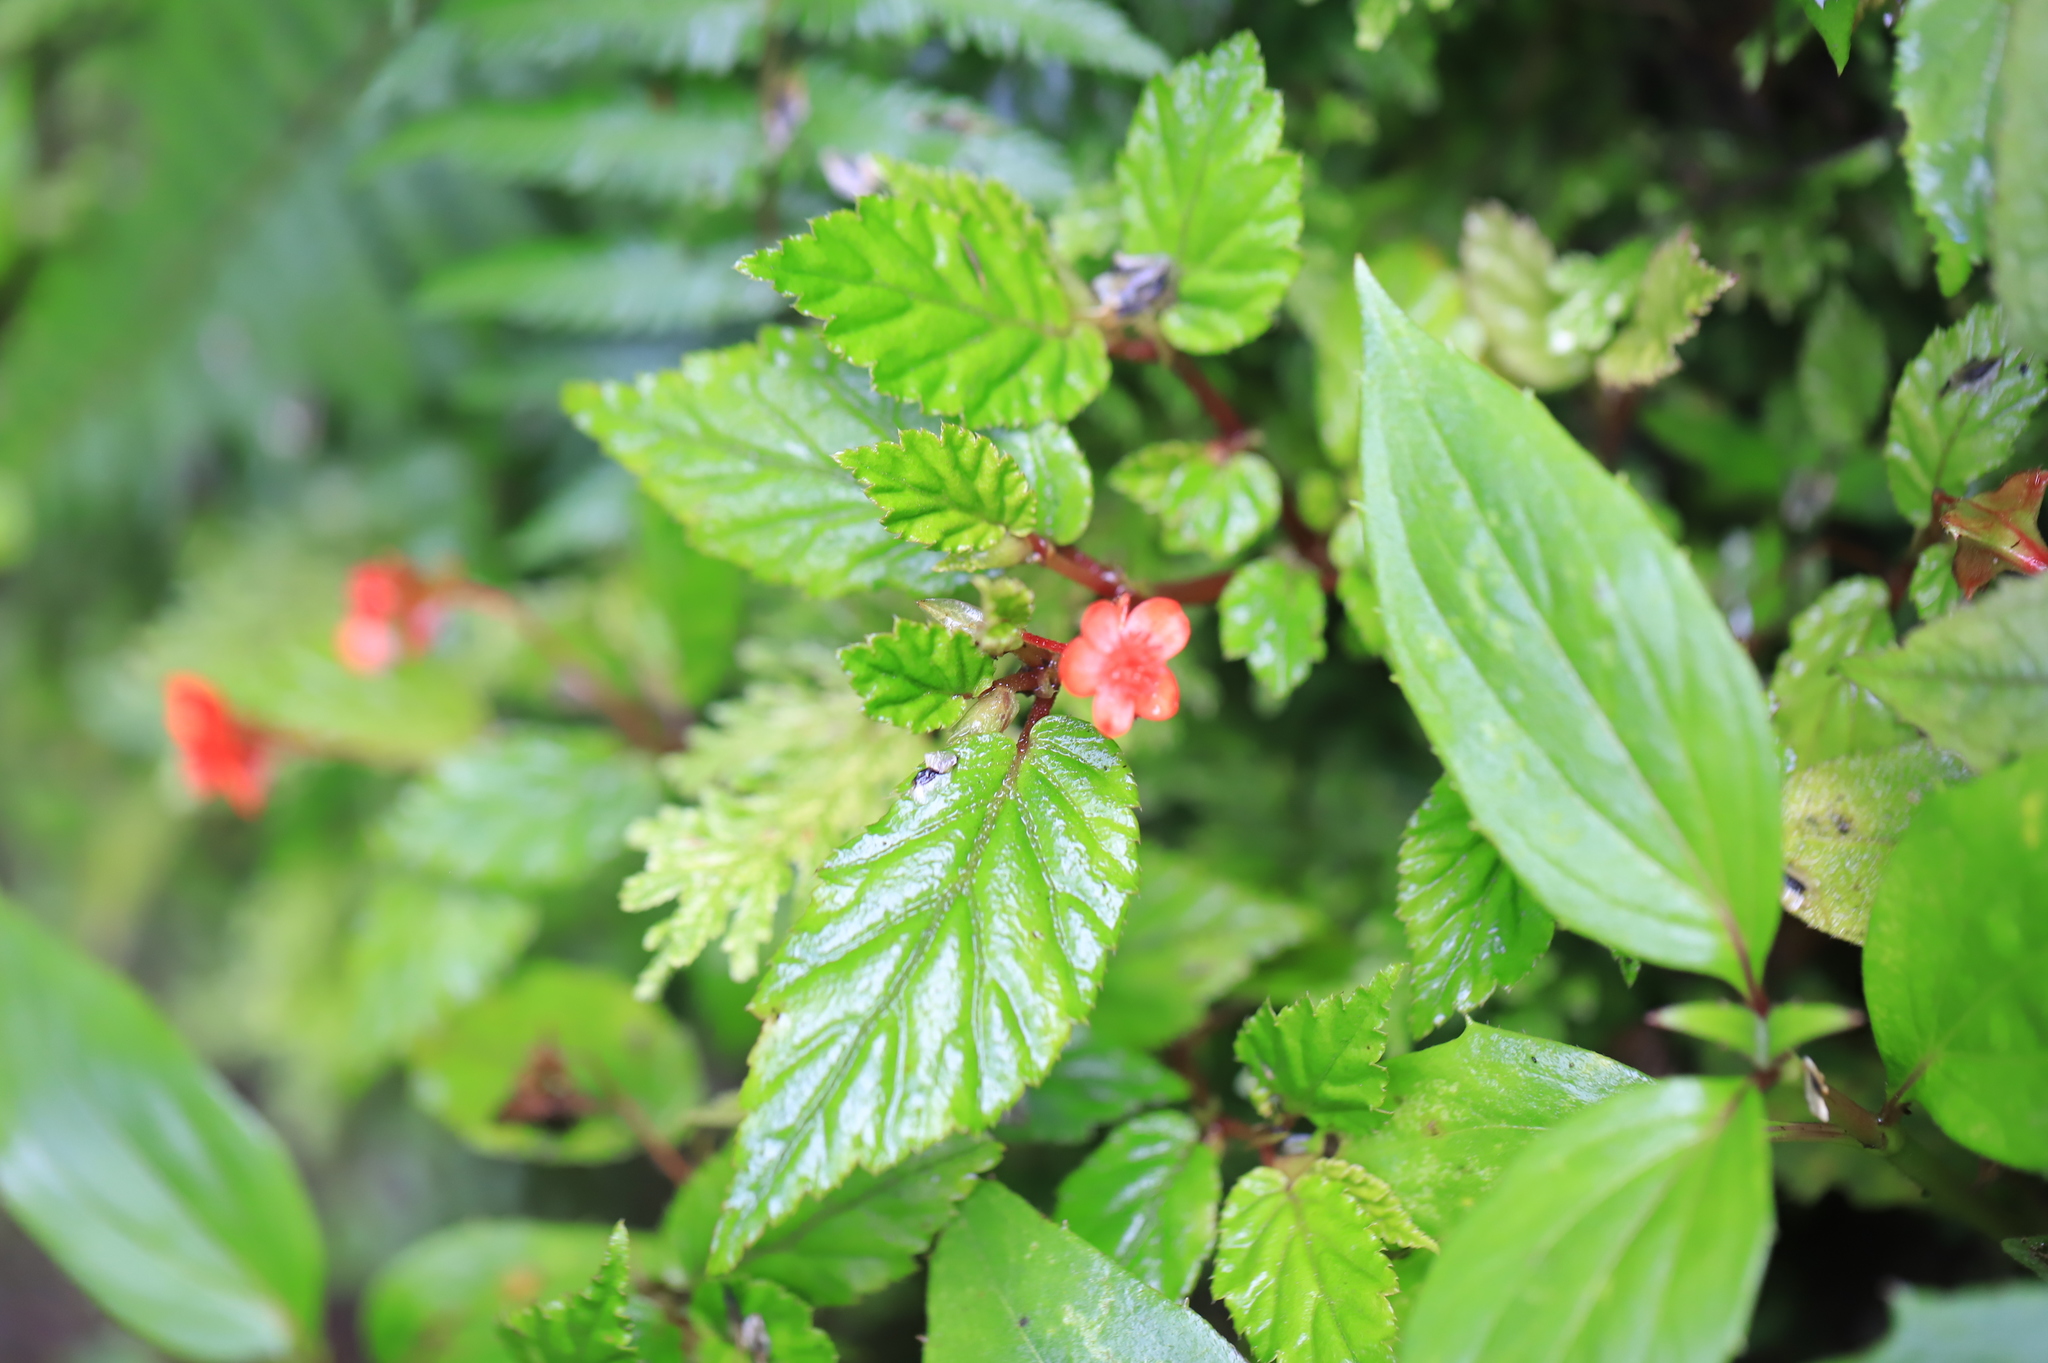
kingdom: Plantae
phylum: Tracheophyta
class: Magnoliopsida
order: Cucurbitales
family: Begoniaceae
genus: Begonia
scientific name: Begonia urticae
